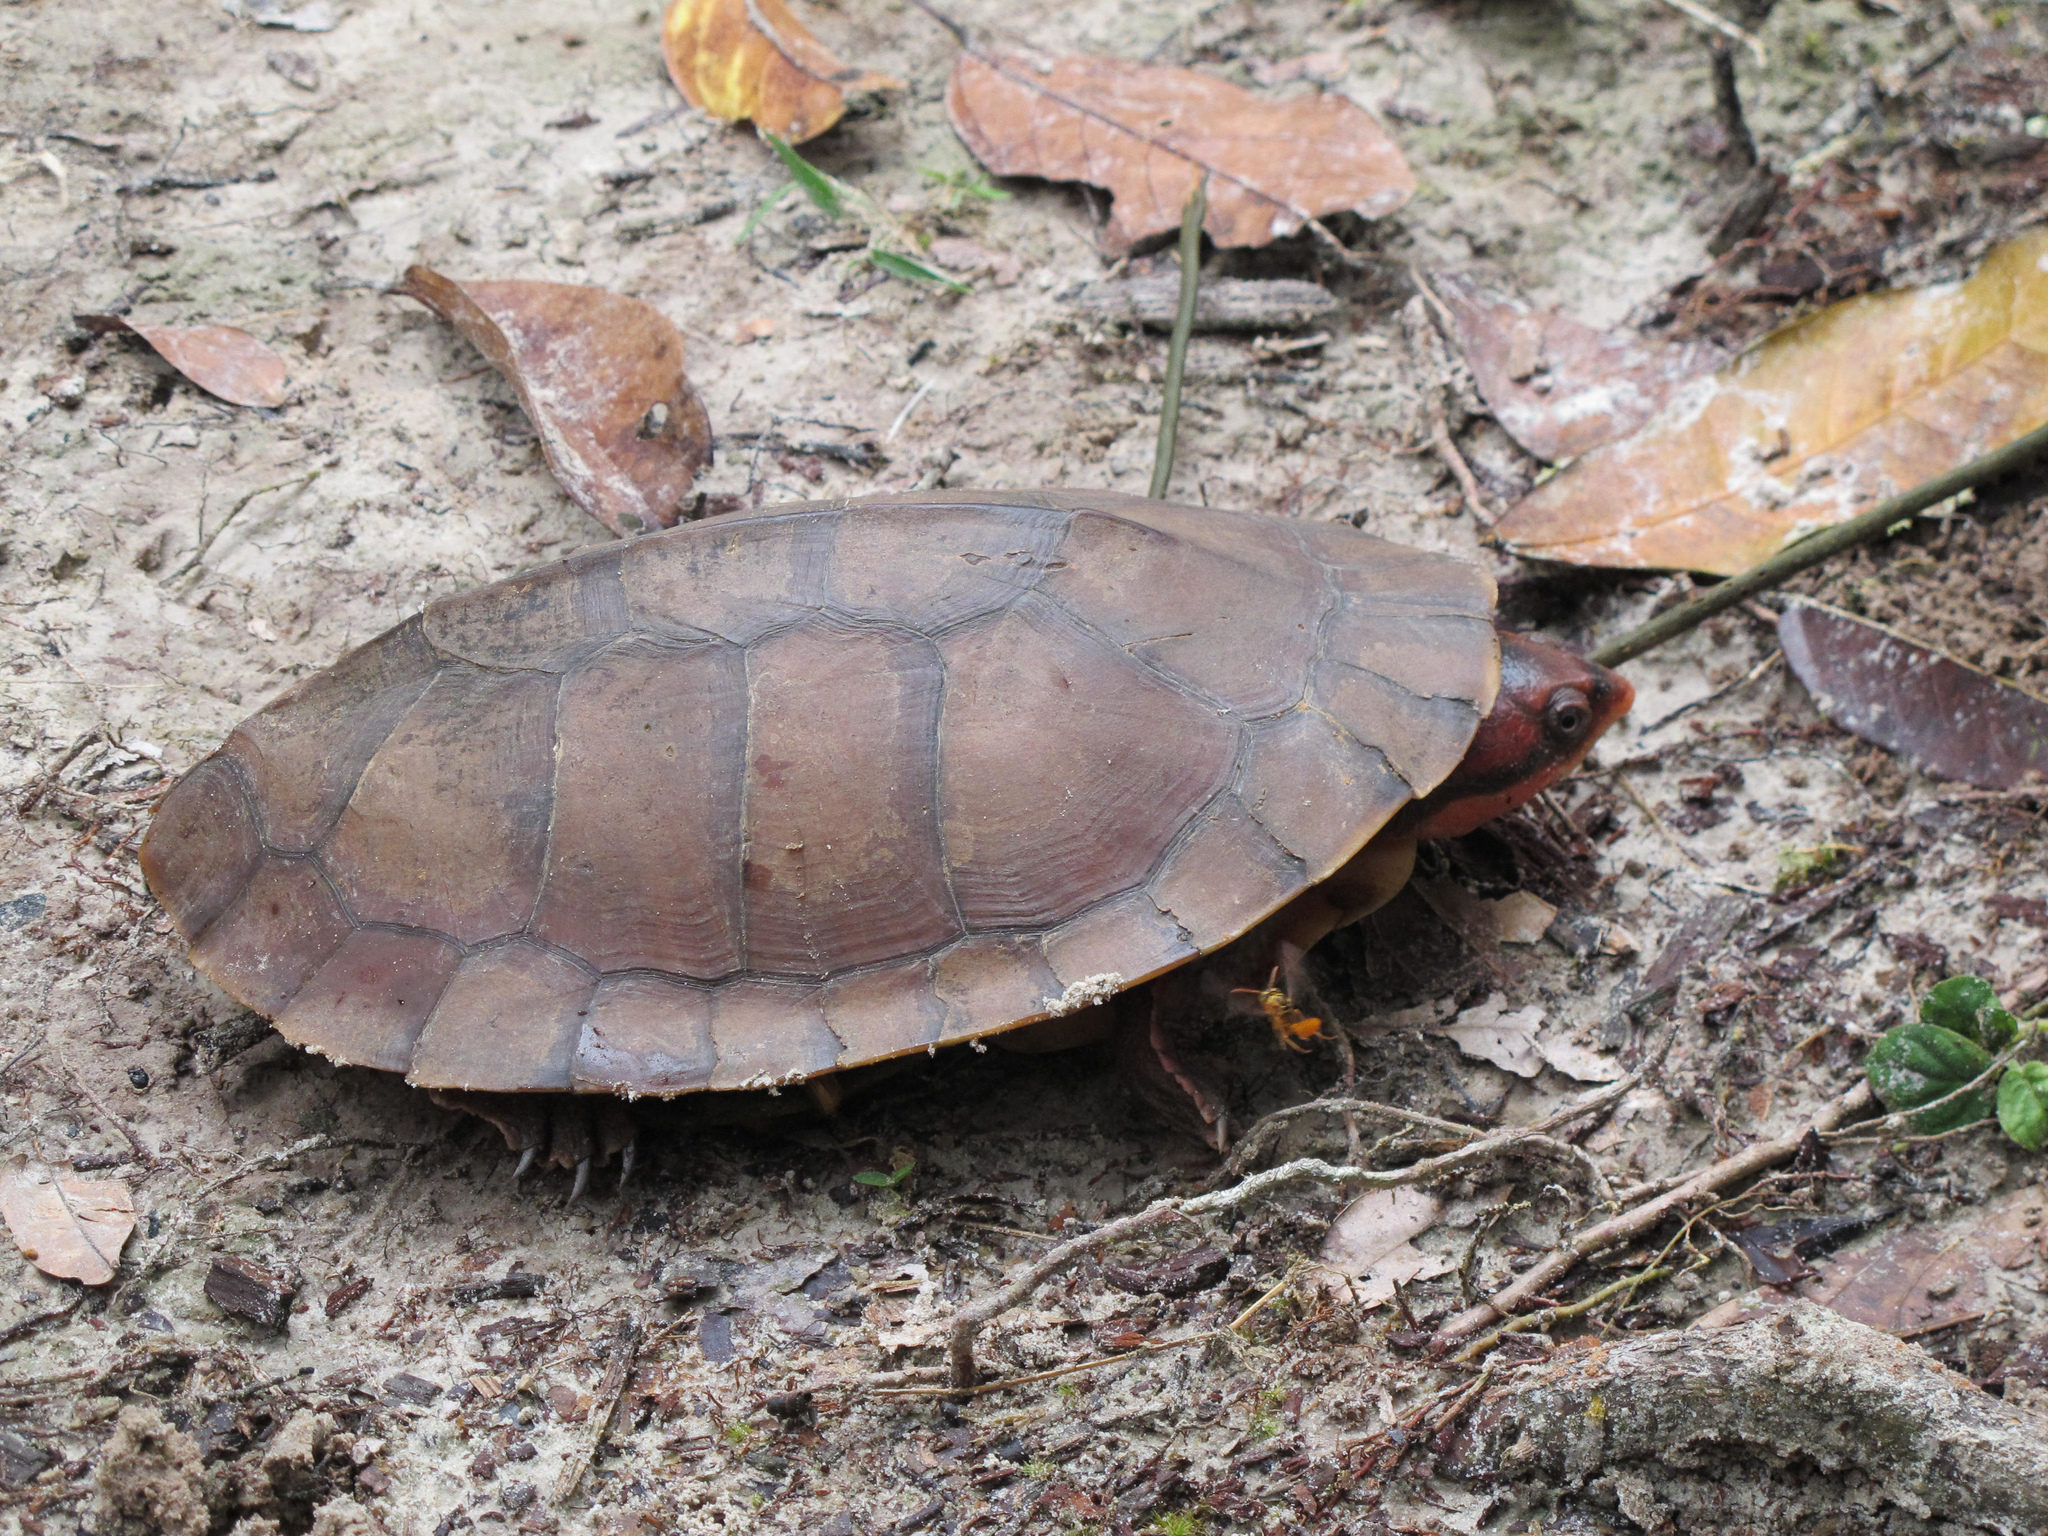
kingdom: Animalia
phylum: Chordata
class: Testudines
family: Chelidae
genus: Rhinemys
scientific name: Rhinemys rufipes
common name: Red side-necked turtle
